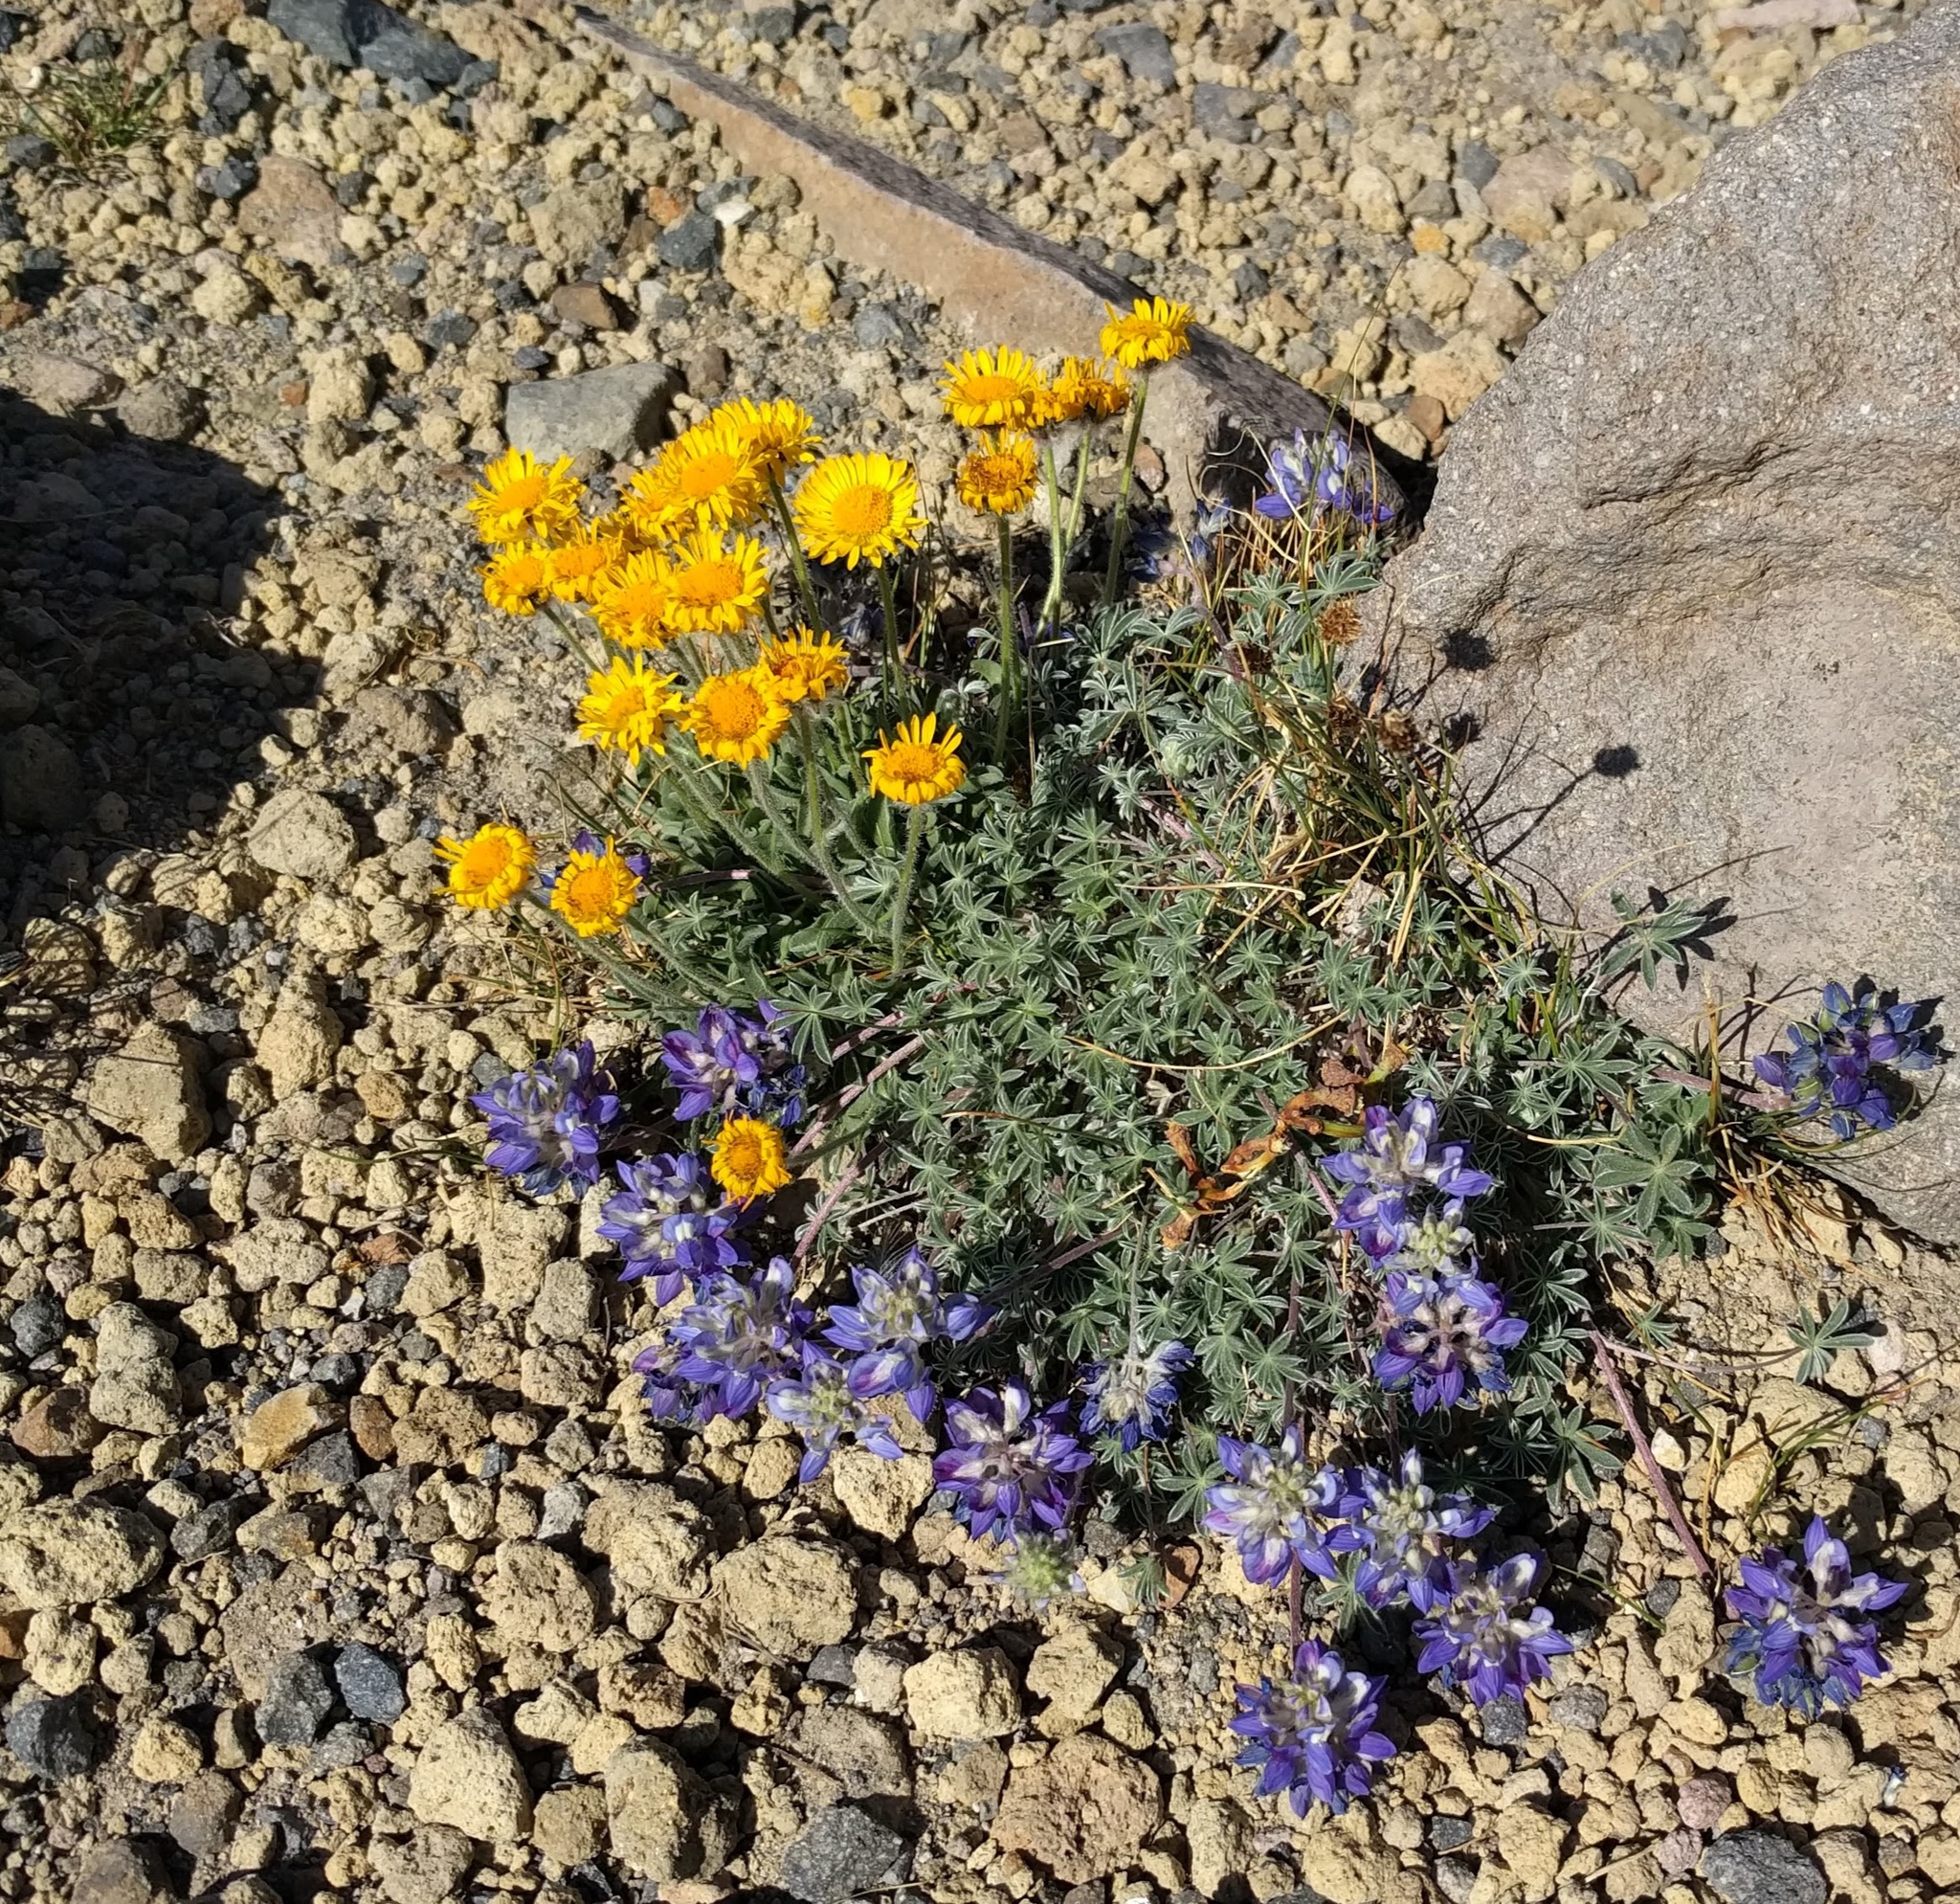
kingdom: Plantae
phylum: Tracheophyta
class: Magnoliopsida
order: Asterales
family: Asteraceae
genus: Erigeron
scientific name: Erigeron aureus
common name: Alpine yellow fleabane
